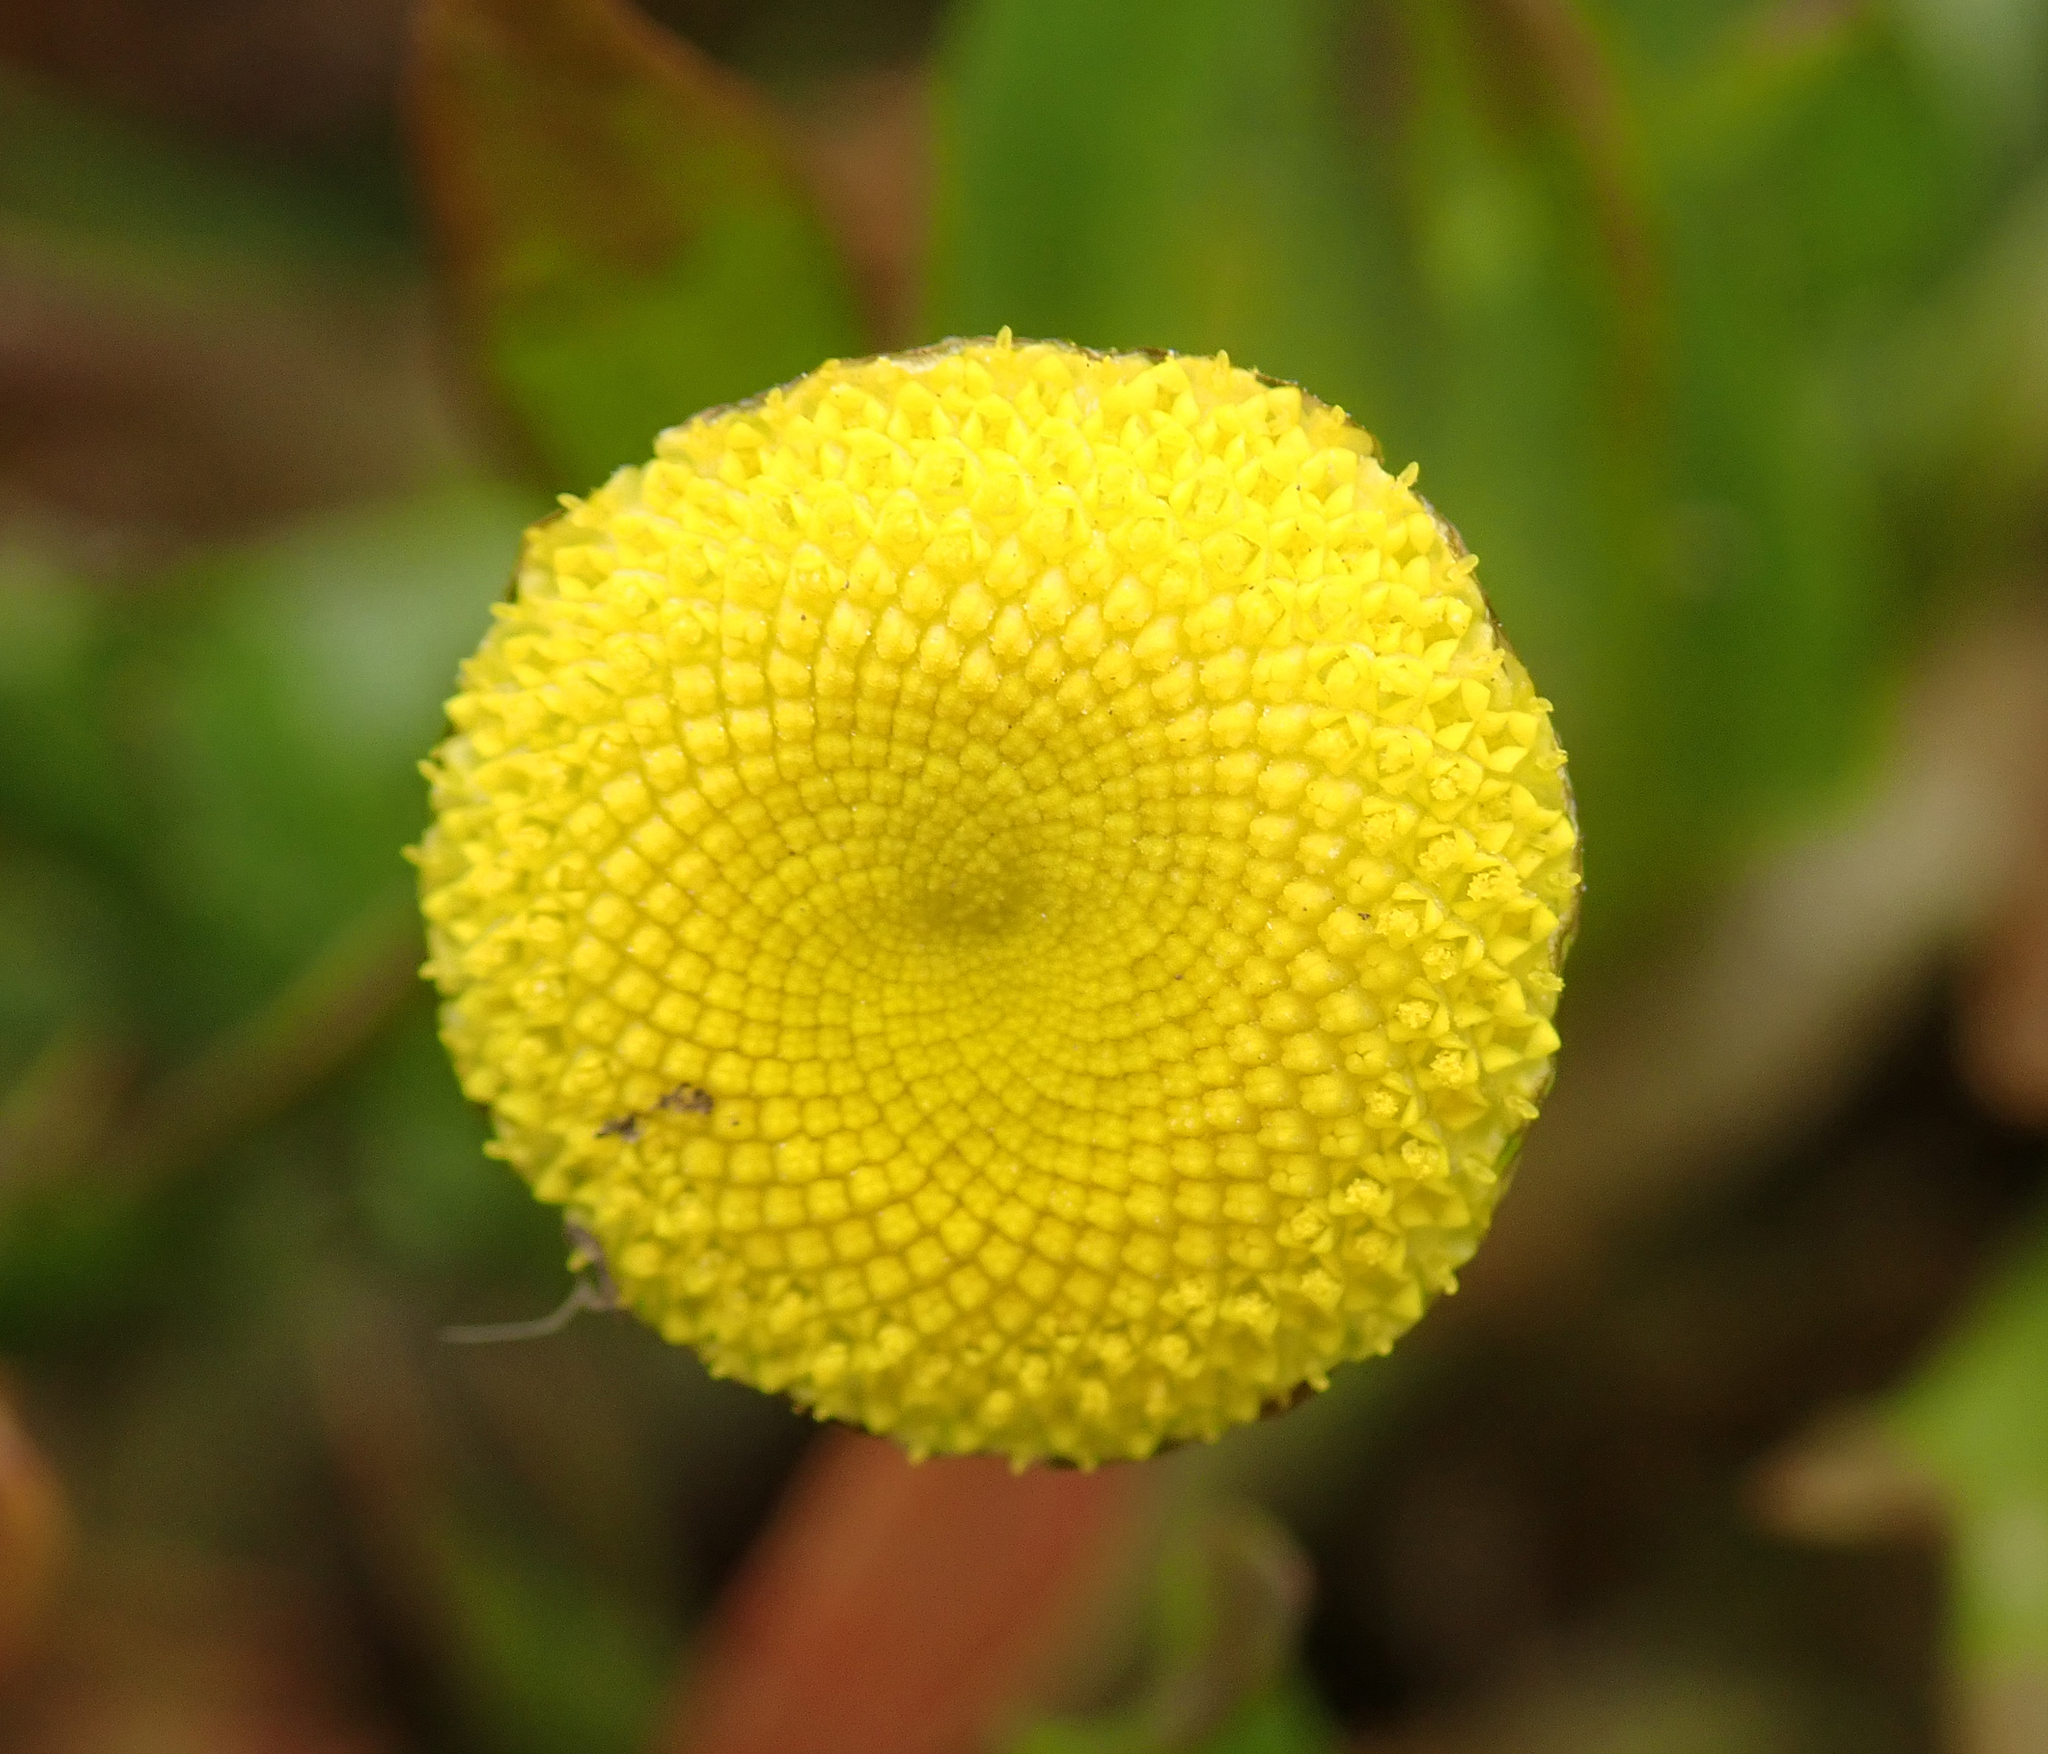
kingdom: Plantae
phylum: Tracheophyta
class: Magnoliopsida
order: Asterales
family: Asteraceae
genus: Cotula
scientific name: Cotula coronopifolia
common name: Buttonweed
